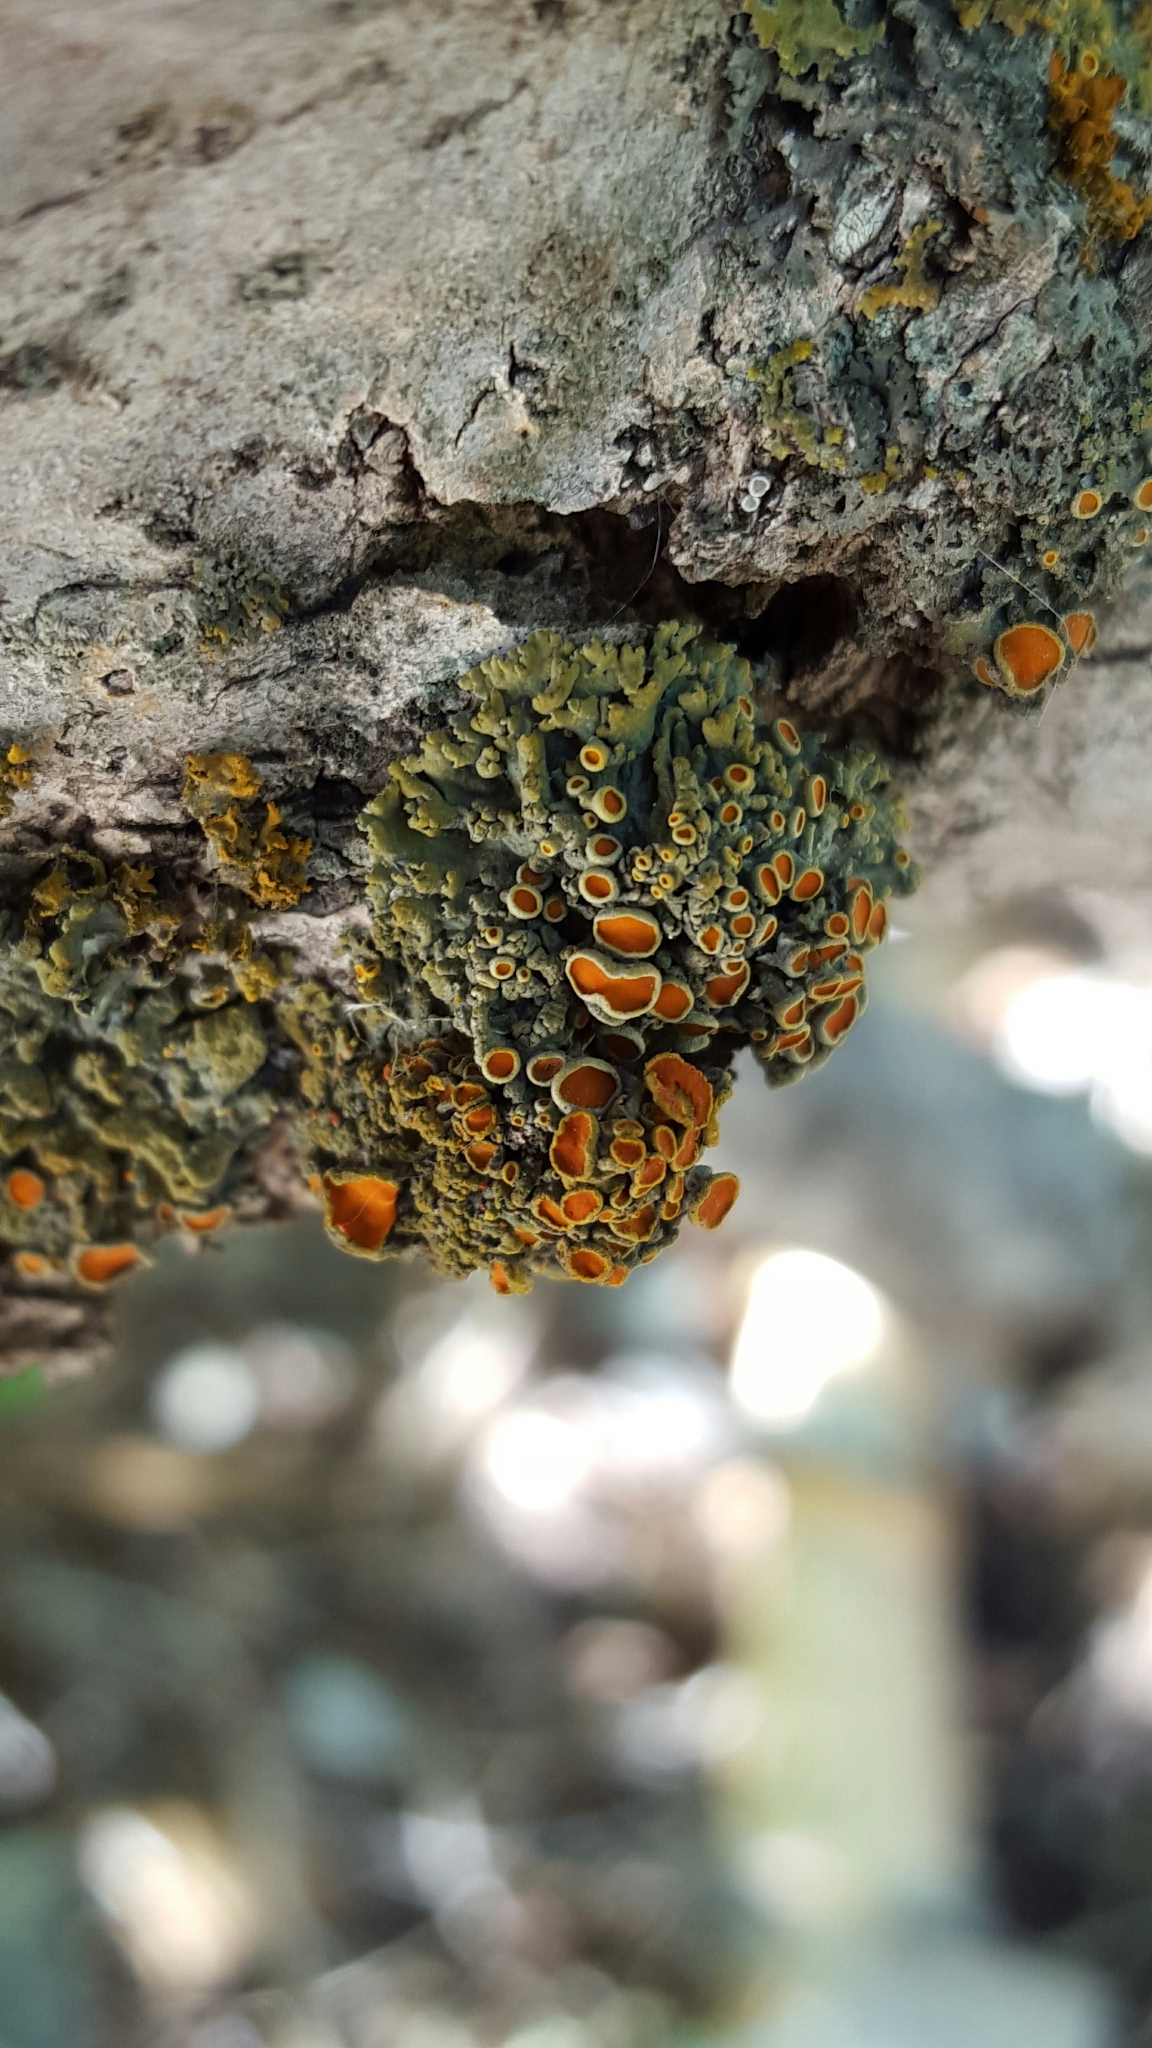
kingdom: Fungi
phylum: Ascomycota
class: Lecanoromycetes
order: Teloschistales
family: Teloschistaceae
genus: Gallowayella
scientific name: Gallowayella hasseana
